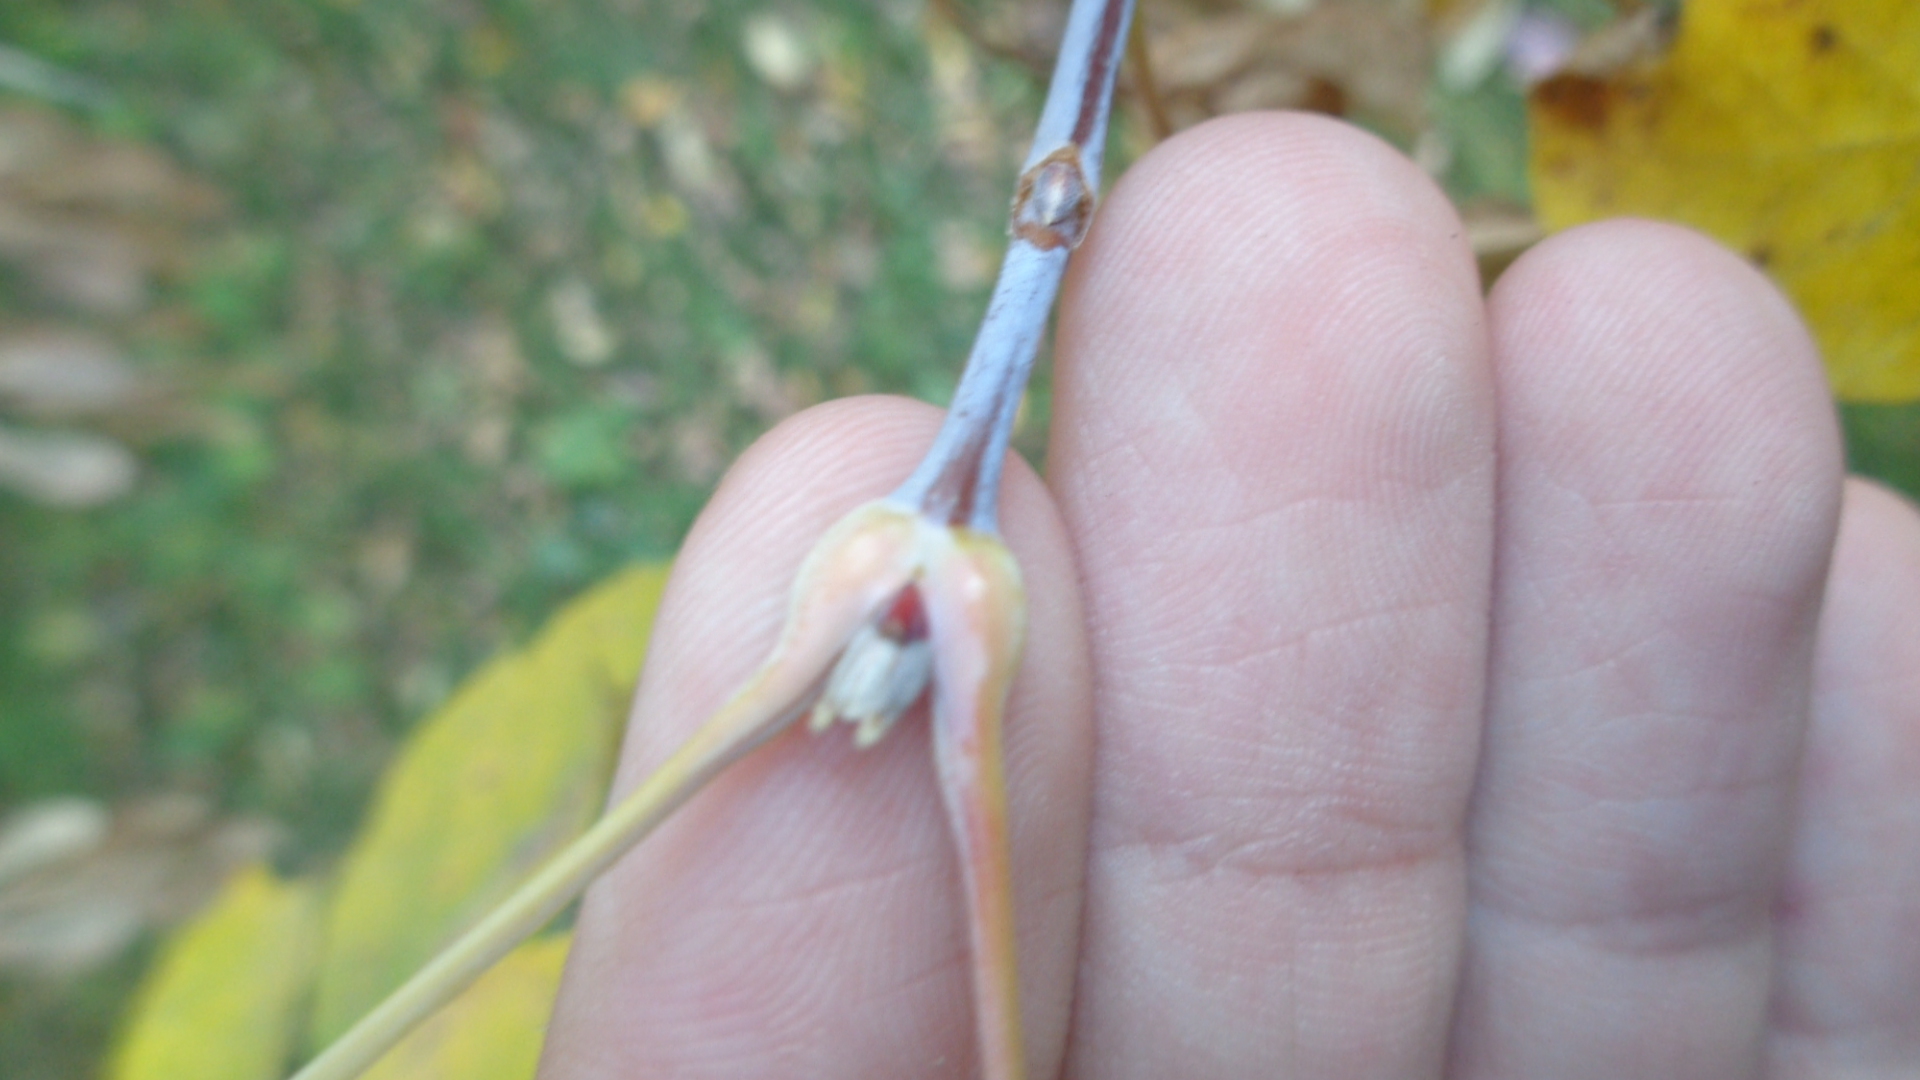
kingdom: Plantae
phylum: Tracheophyta
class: Magnoliopsida
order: Sapindales
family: Sapindaceae
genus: Acer
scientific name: Acer negundo
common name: Ashleaf maple
